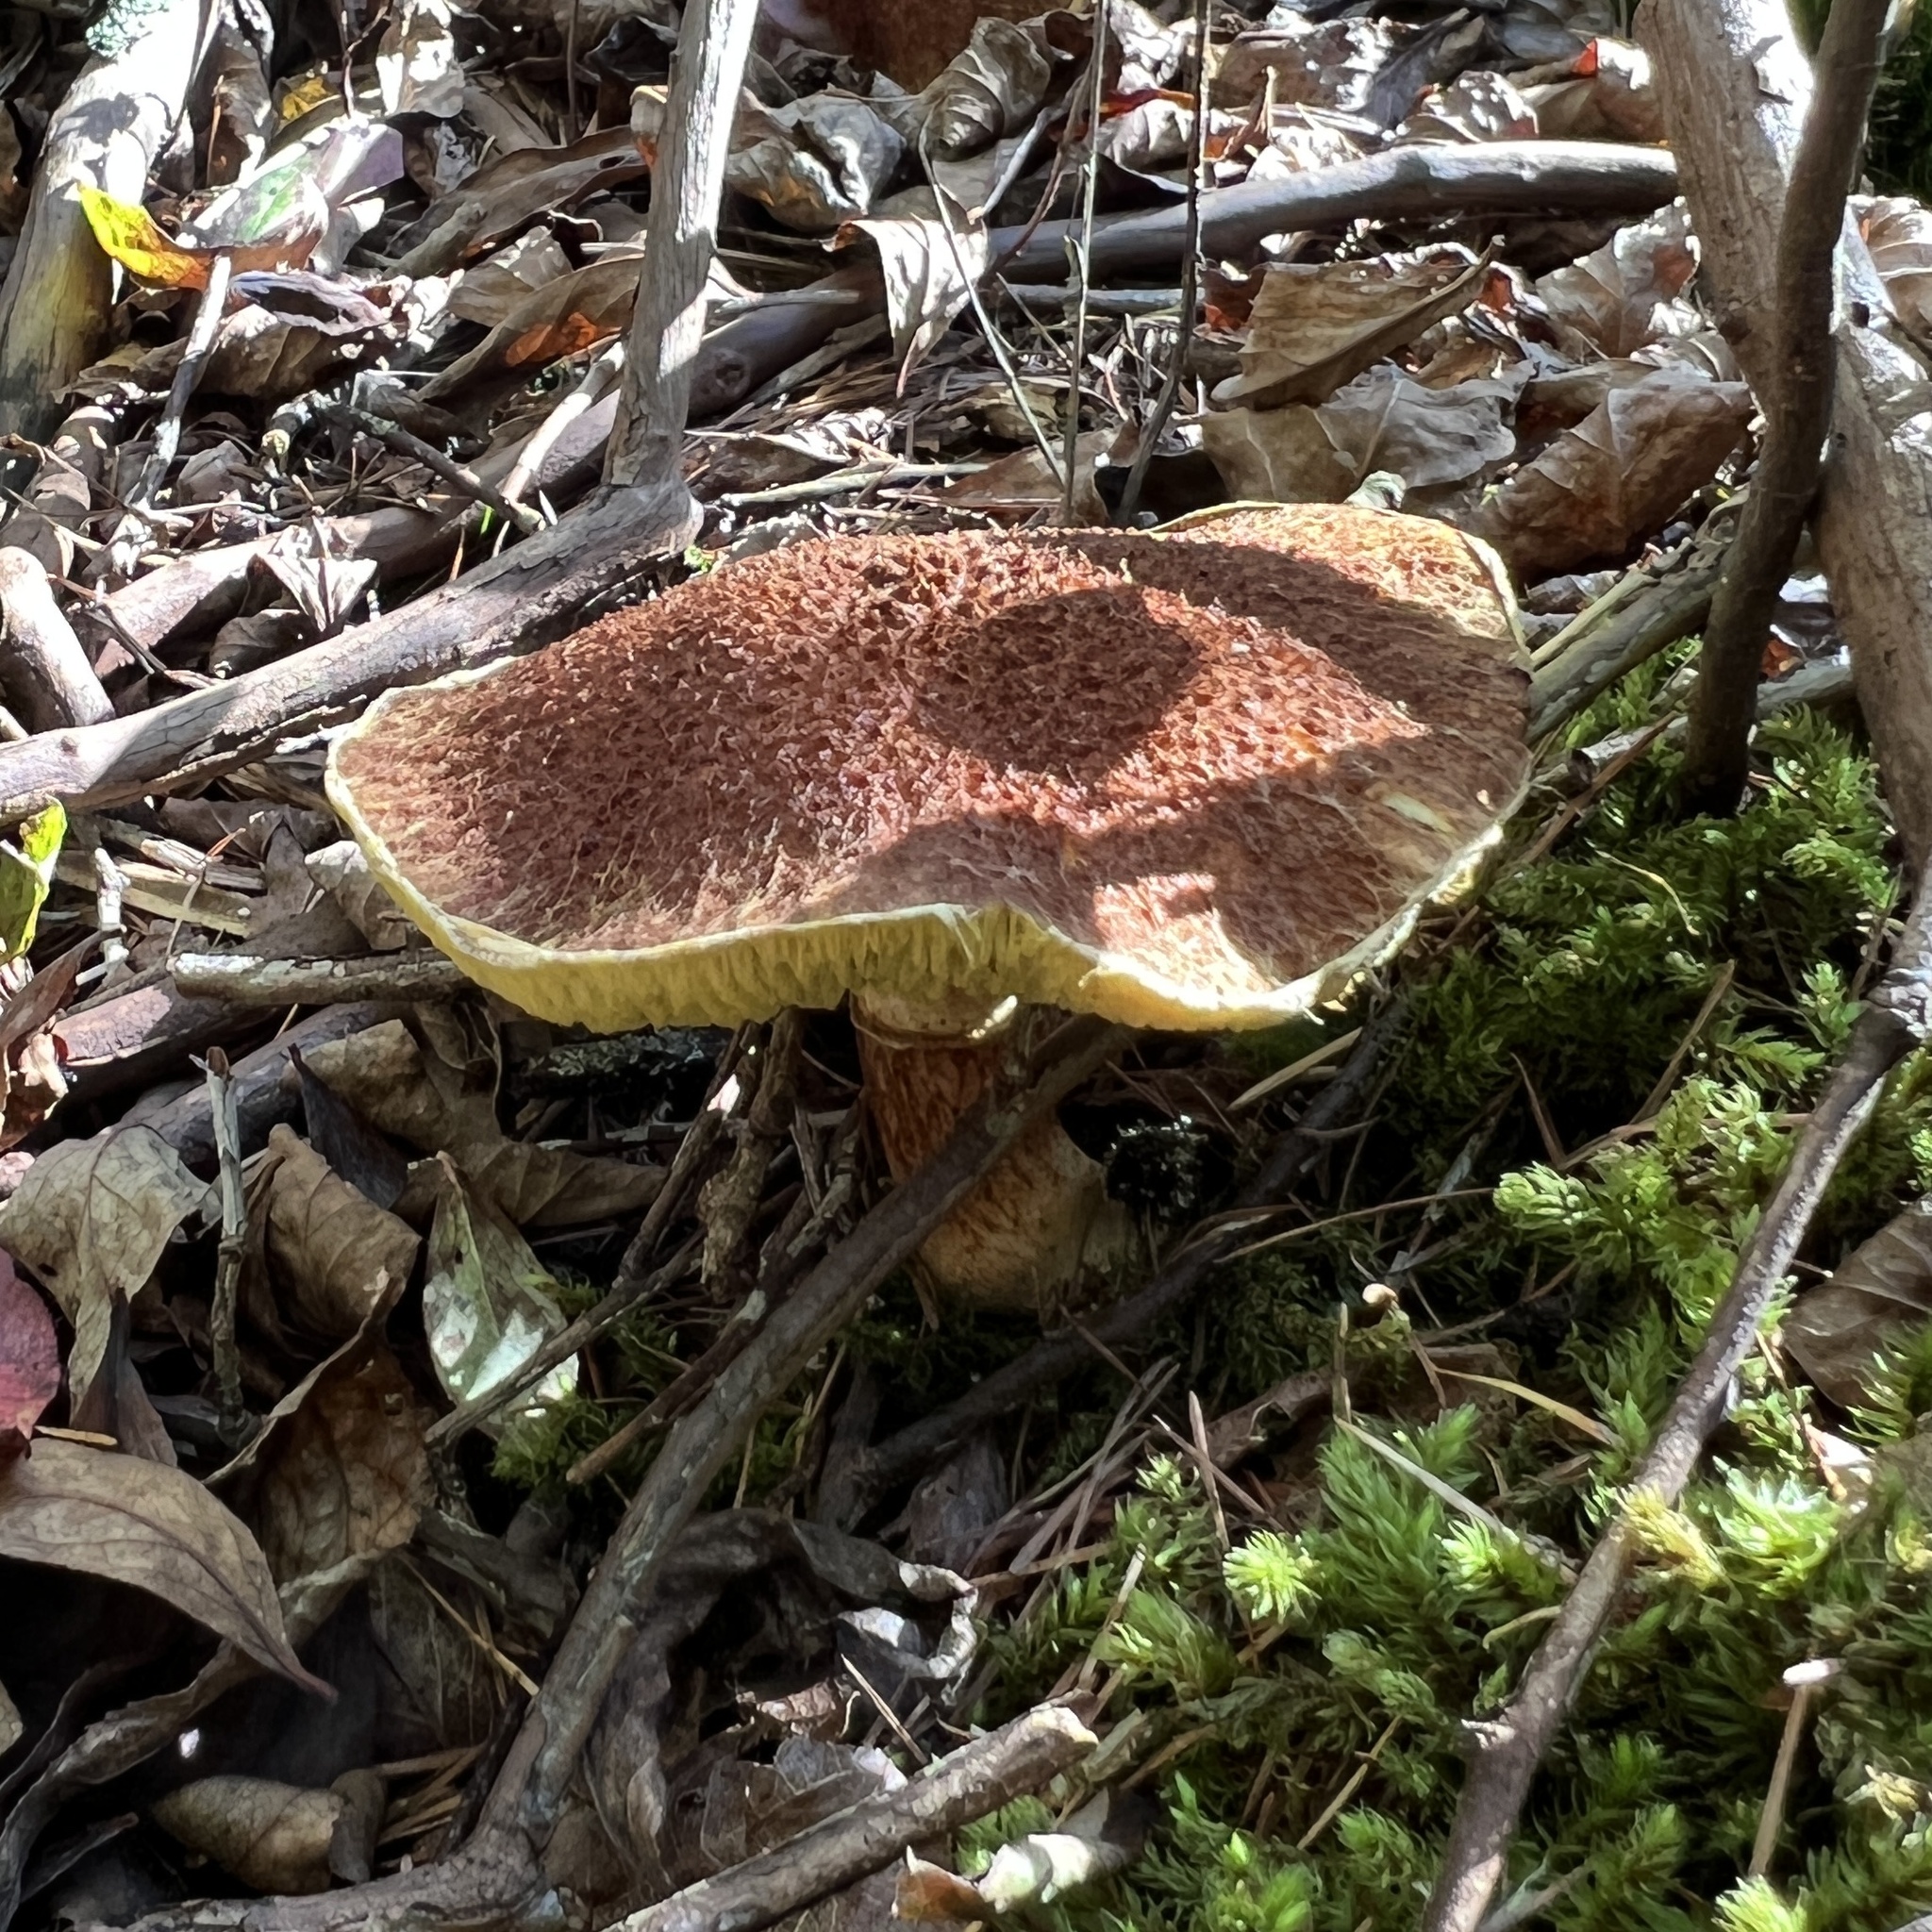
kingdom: Fungi
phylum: Basidiomycota
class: Agaricomycetes
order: Boletales
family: Suillaceae
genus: Boletinus
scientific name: Boletinus ampliporus
